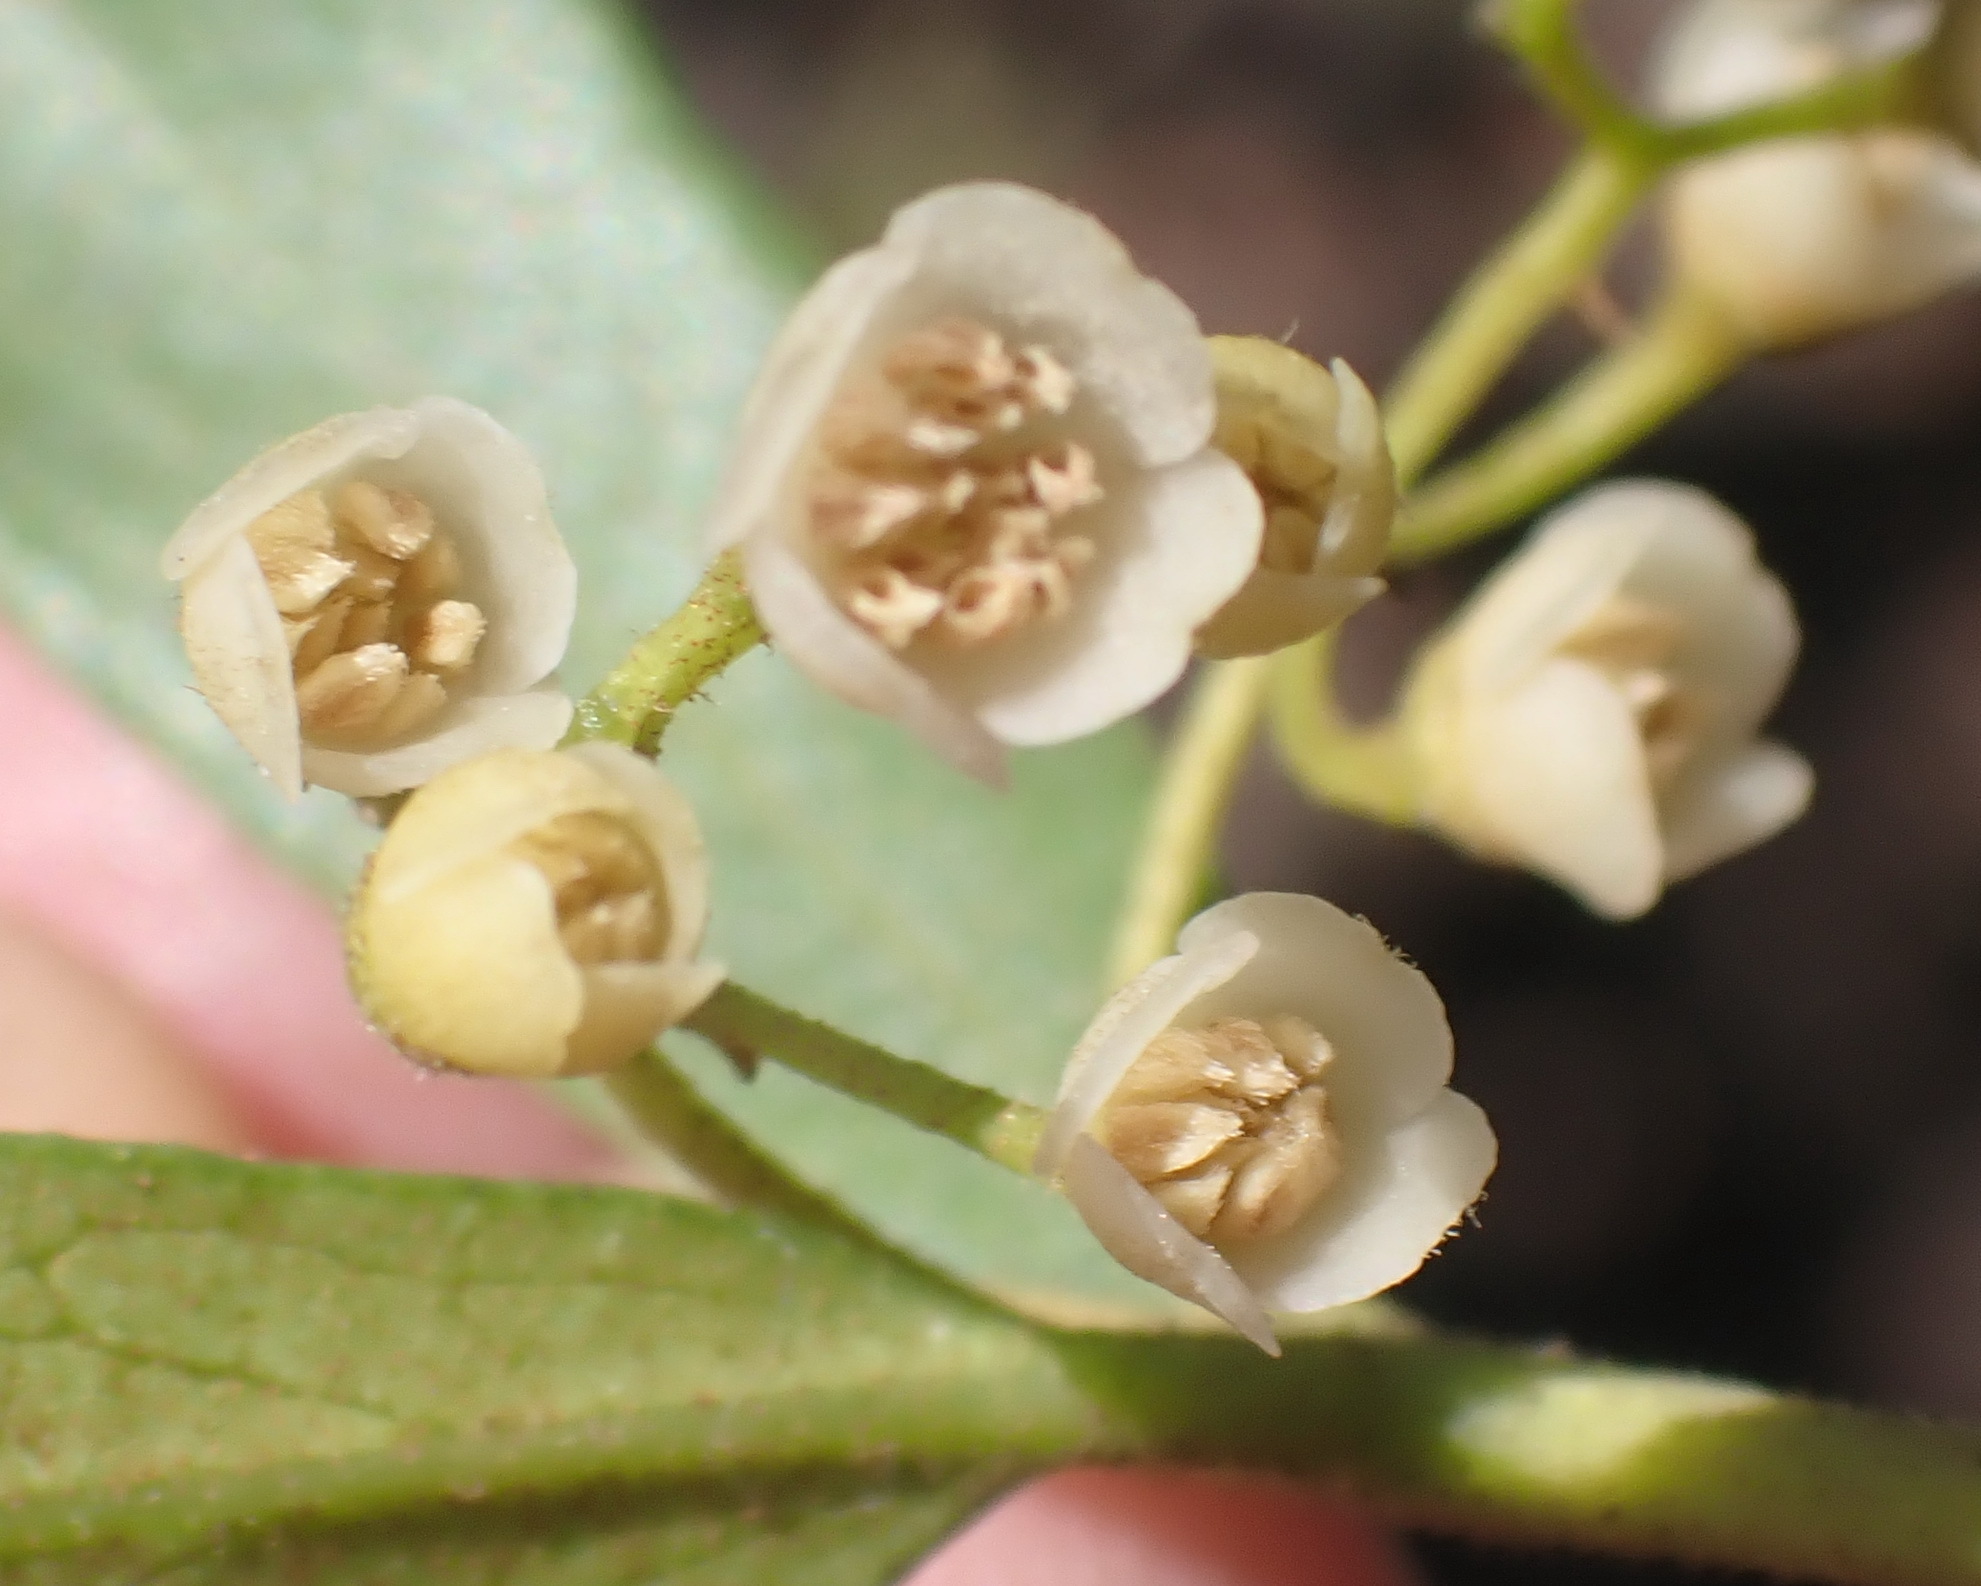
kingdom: Plantae
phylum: Tracheophyta
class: Magnoliopsida
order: Ericales
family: Ebenaceae
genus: Euclea
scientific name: Euclea racemosa
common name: Dune guarri
